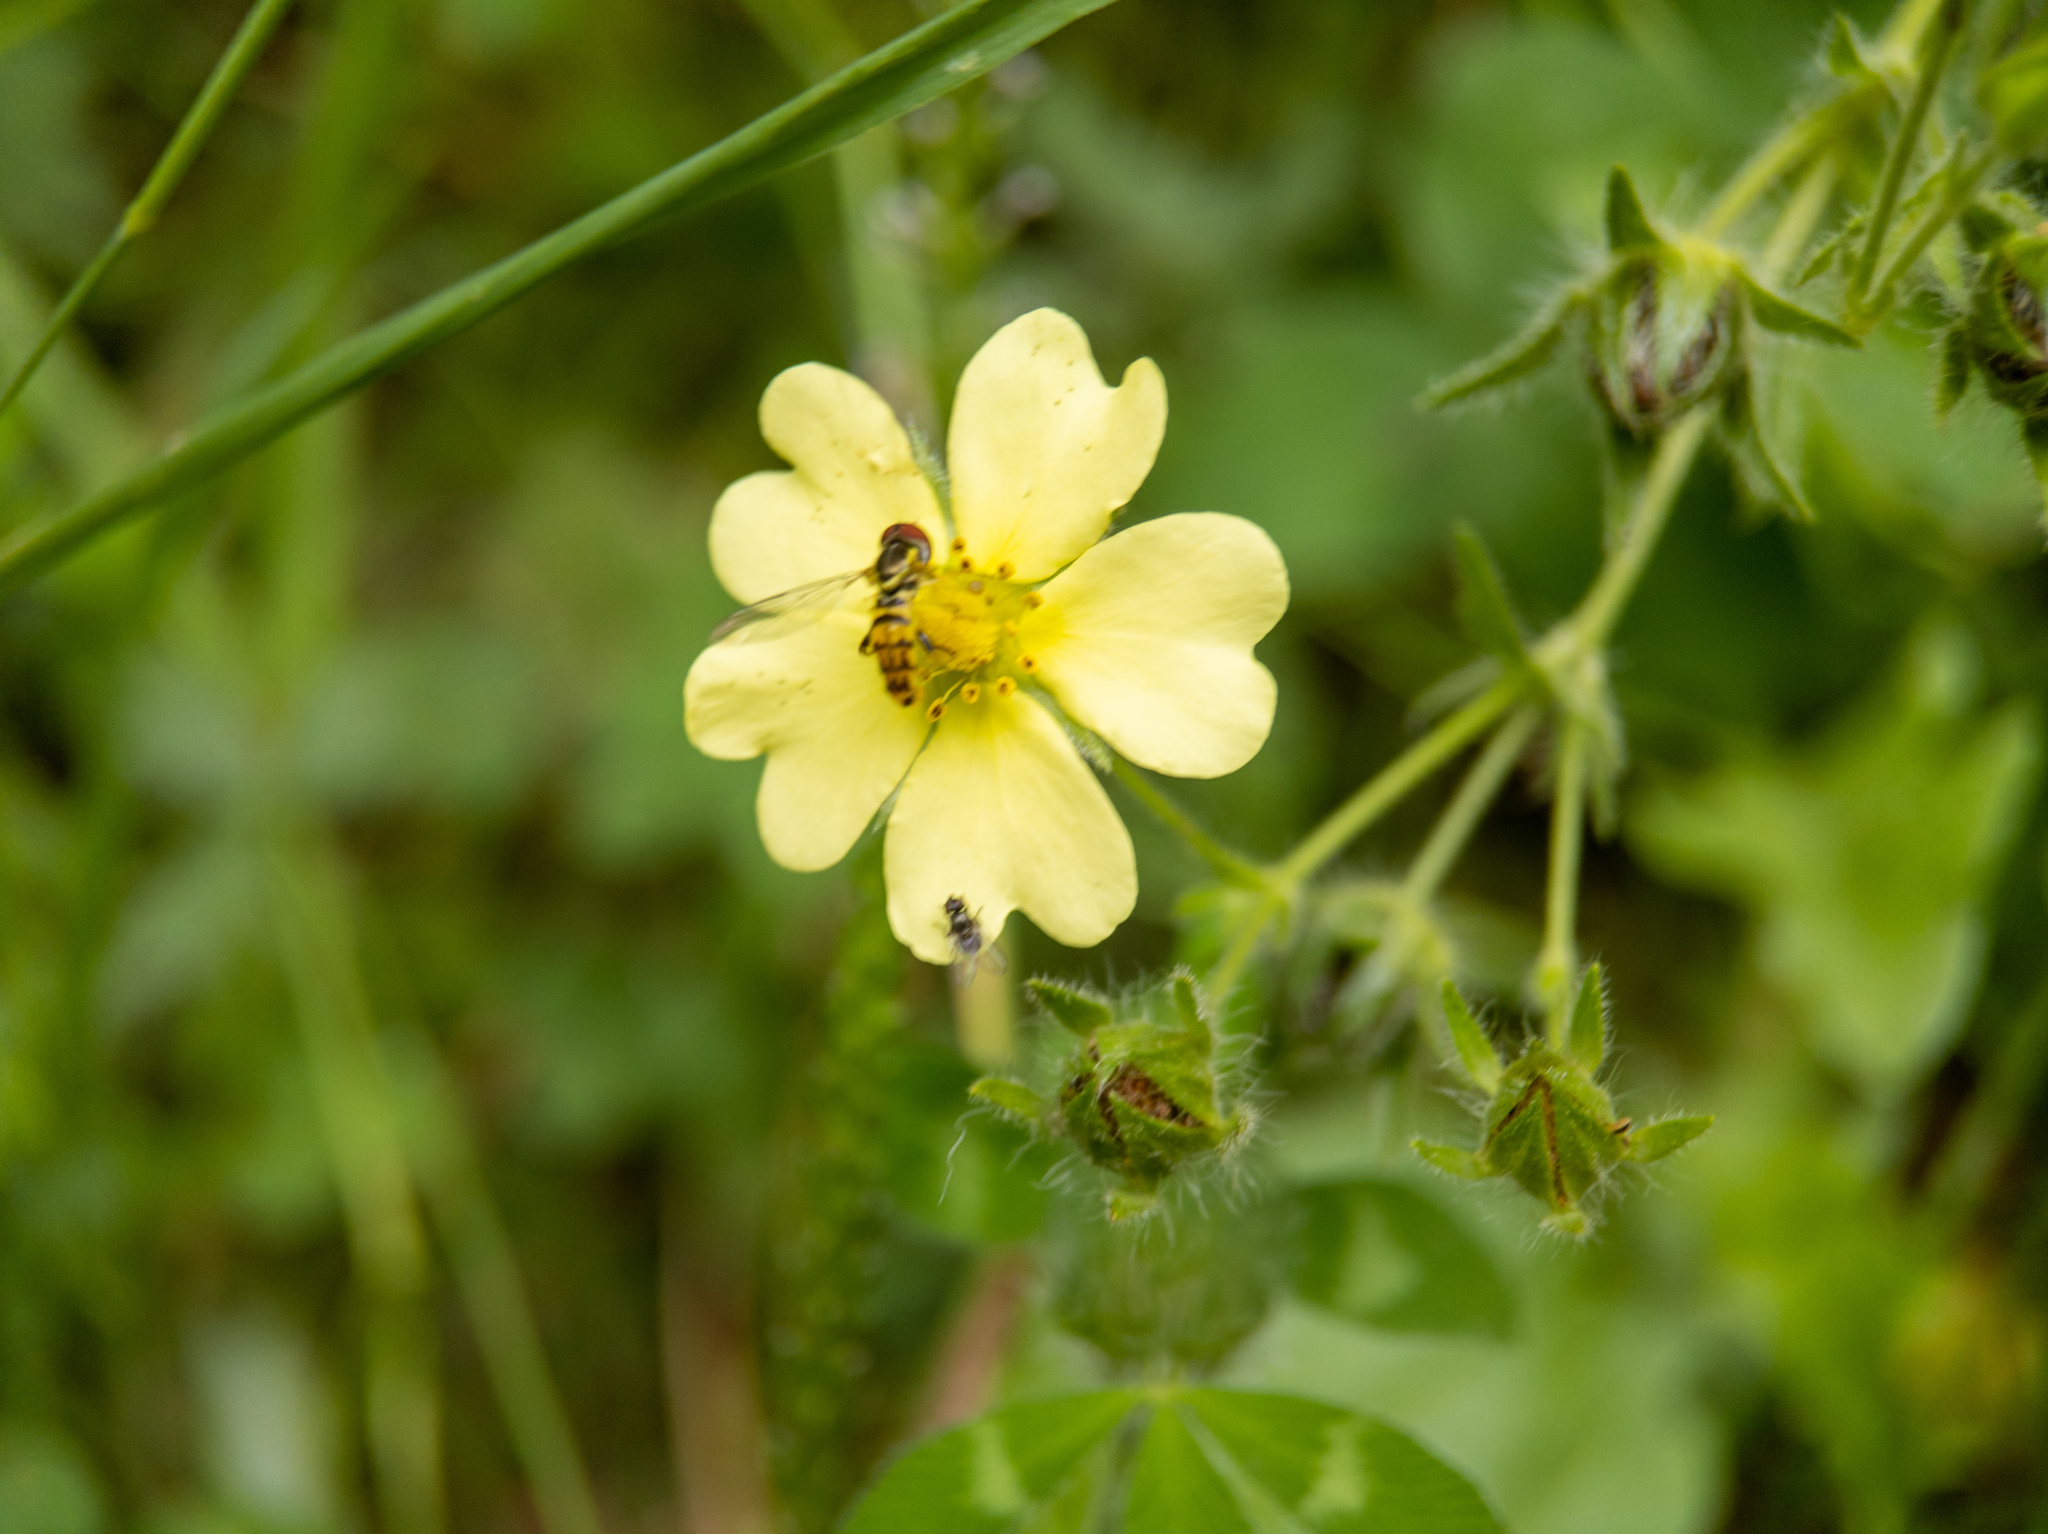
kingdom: Plantae
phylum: Tracheophyta
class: Magnoliopsida
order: Rosales
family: Rosaceae
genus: Potentilla
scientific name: Potentilla recta
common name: Sulphur cinquefoil
